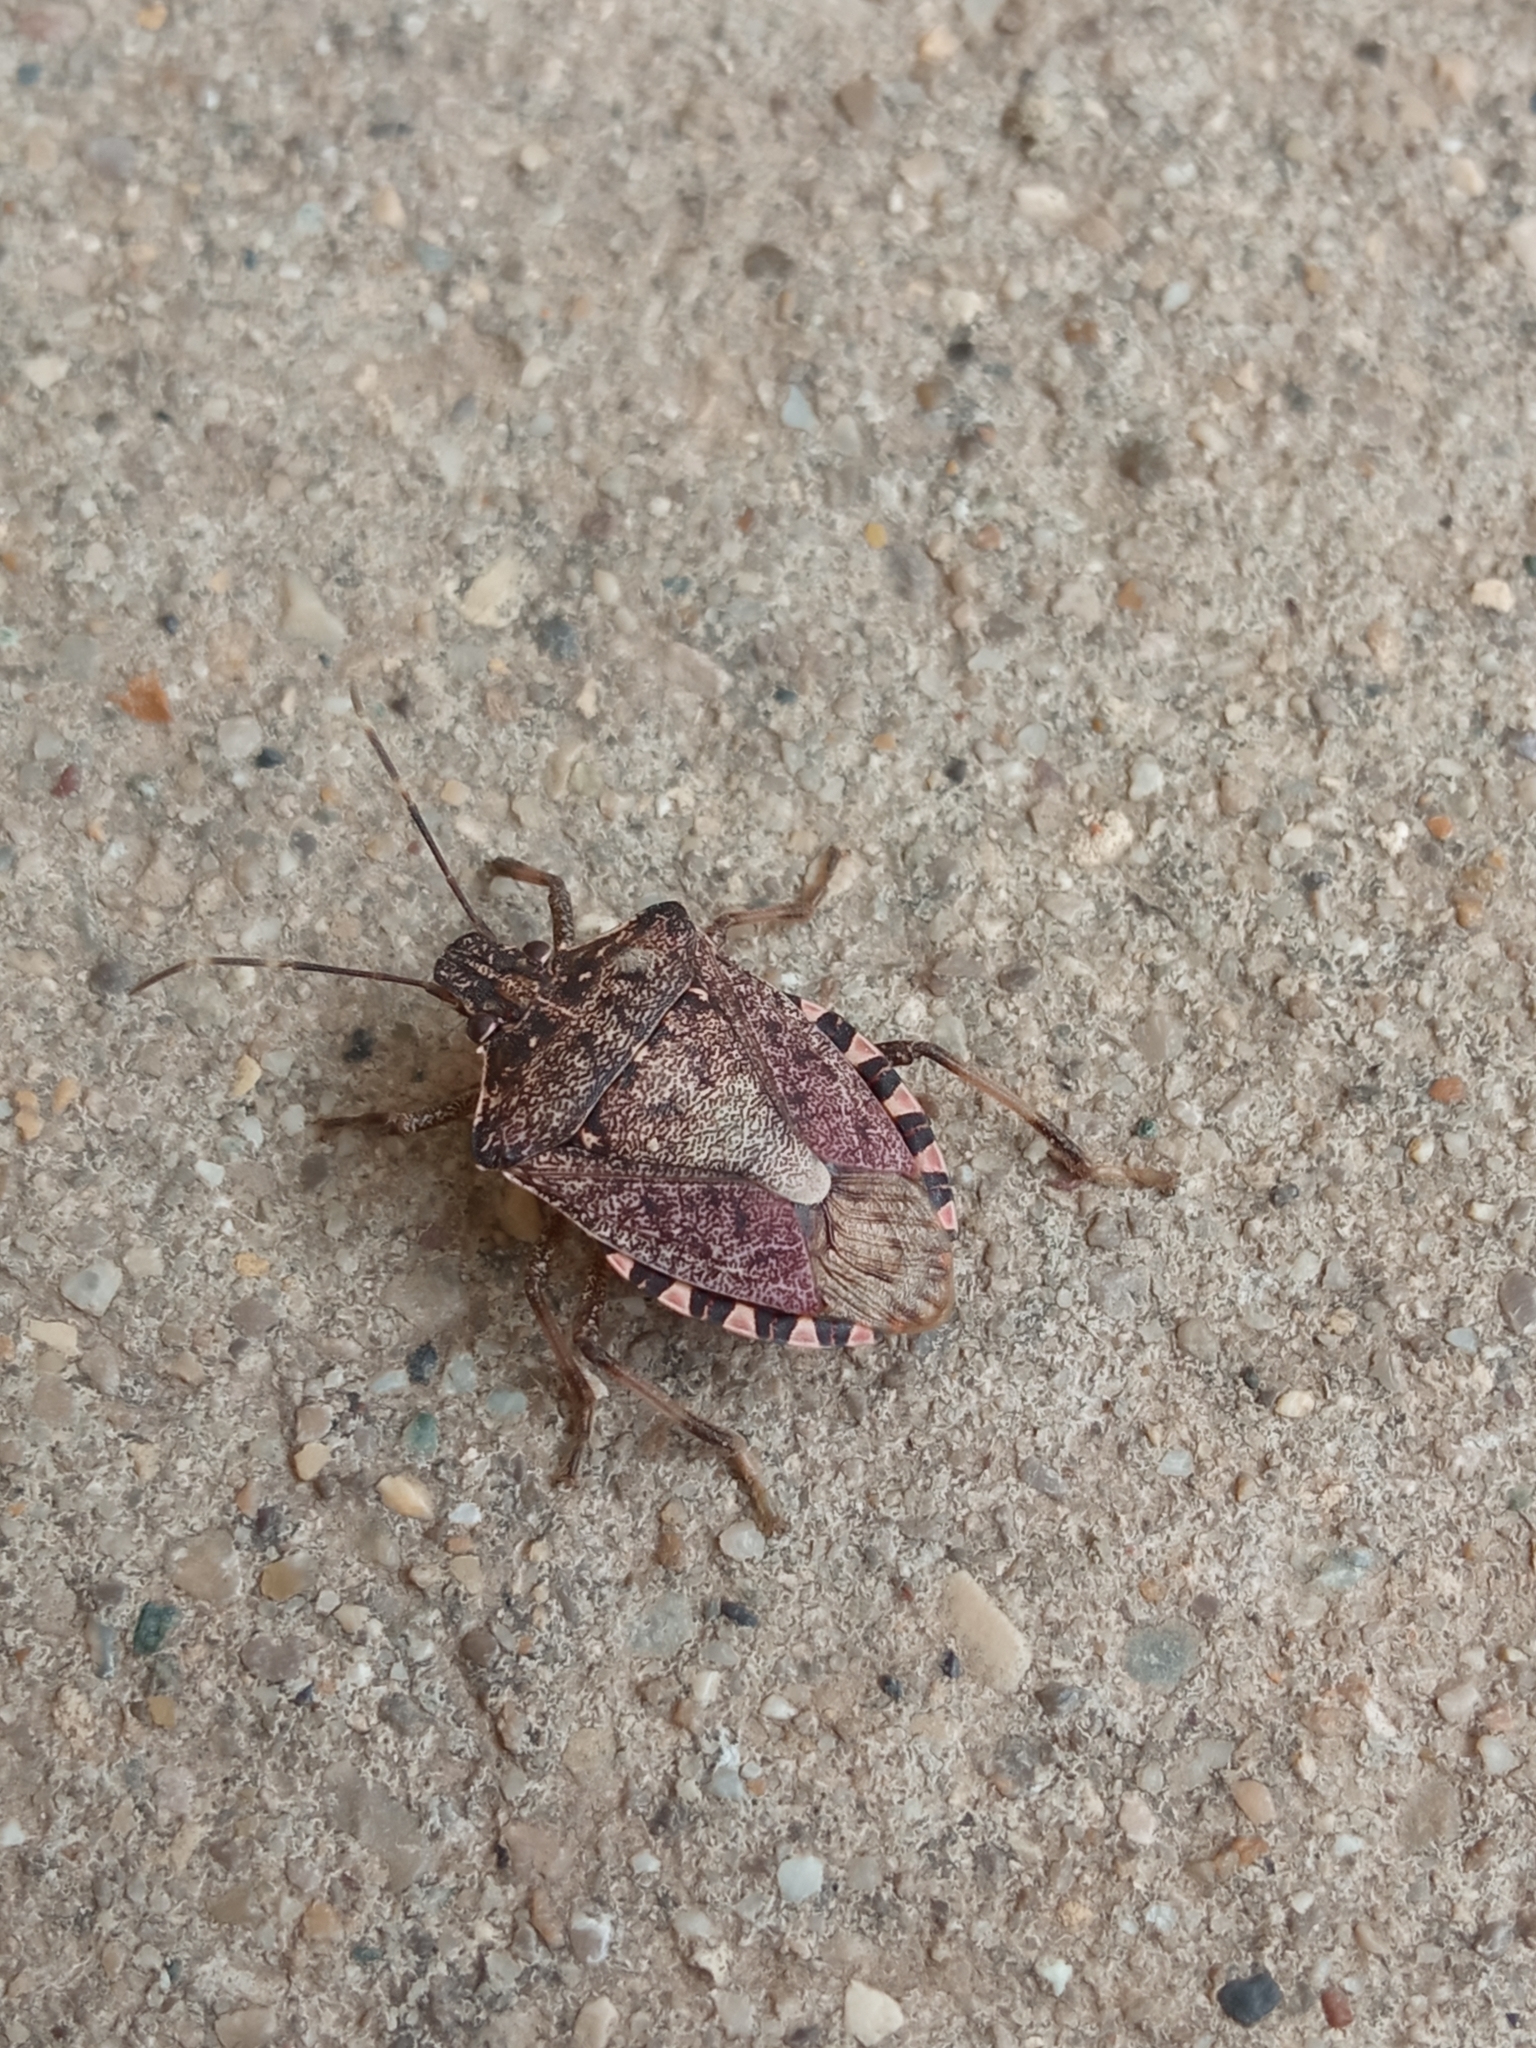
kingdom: Animalia
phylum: Arthropoda
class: Insecta
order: Hemiptera
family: Pentatomidae
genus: Halyomorpha
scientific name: Halyomorpha halys
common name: Brown marmorated stink bug
